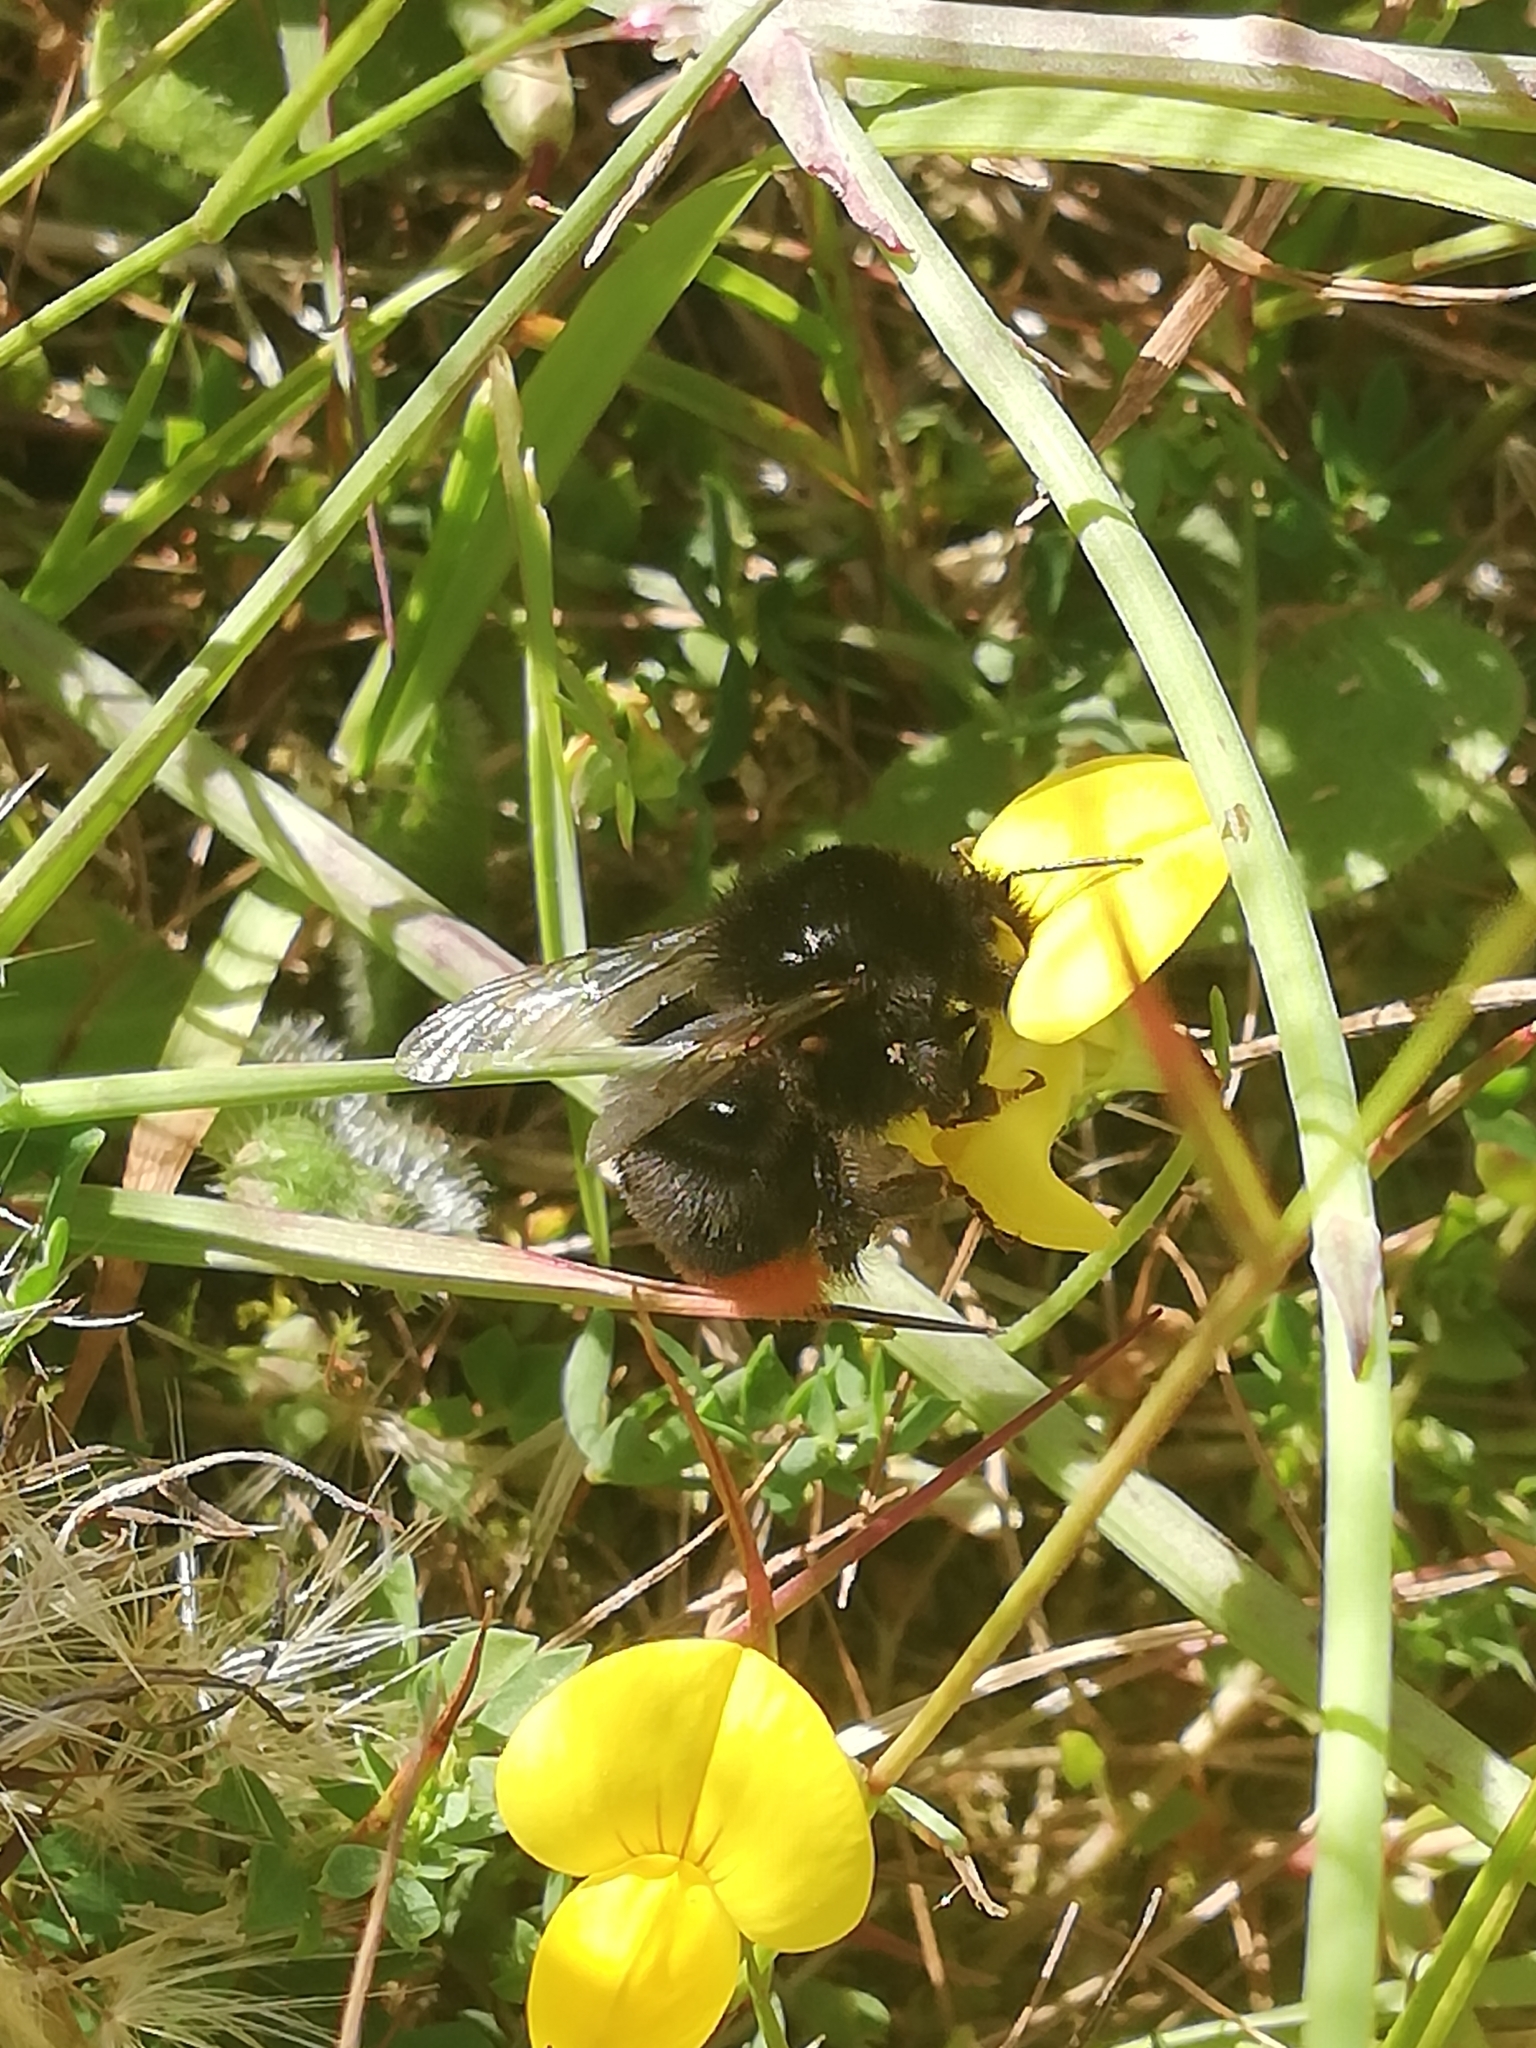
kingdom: Animalia
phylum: Arthropoda
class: Insecta
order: Hymenoptera
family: Apidae
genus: Bombus
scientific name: Bombus lapidarius
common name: Large red-tailed humble-bee
